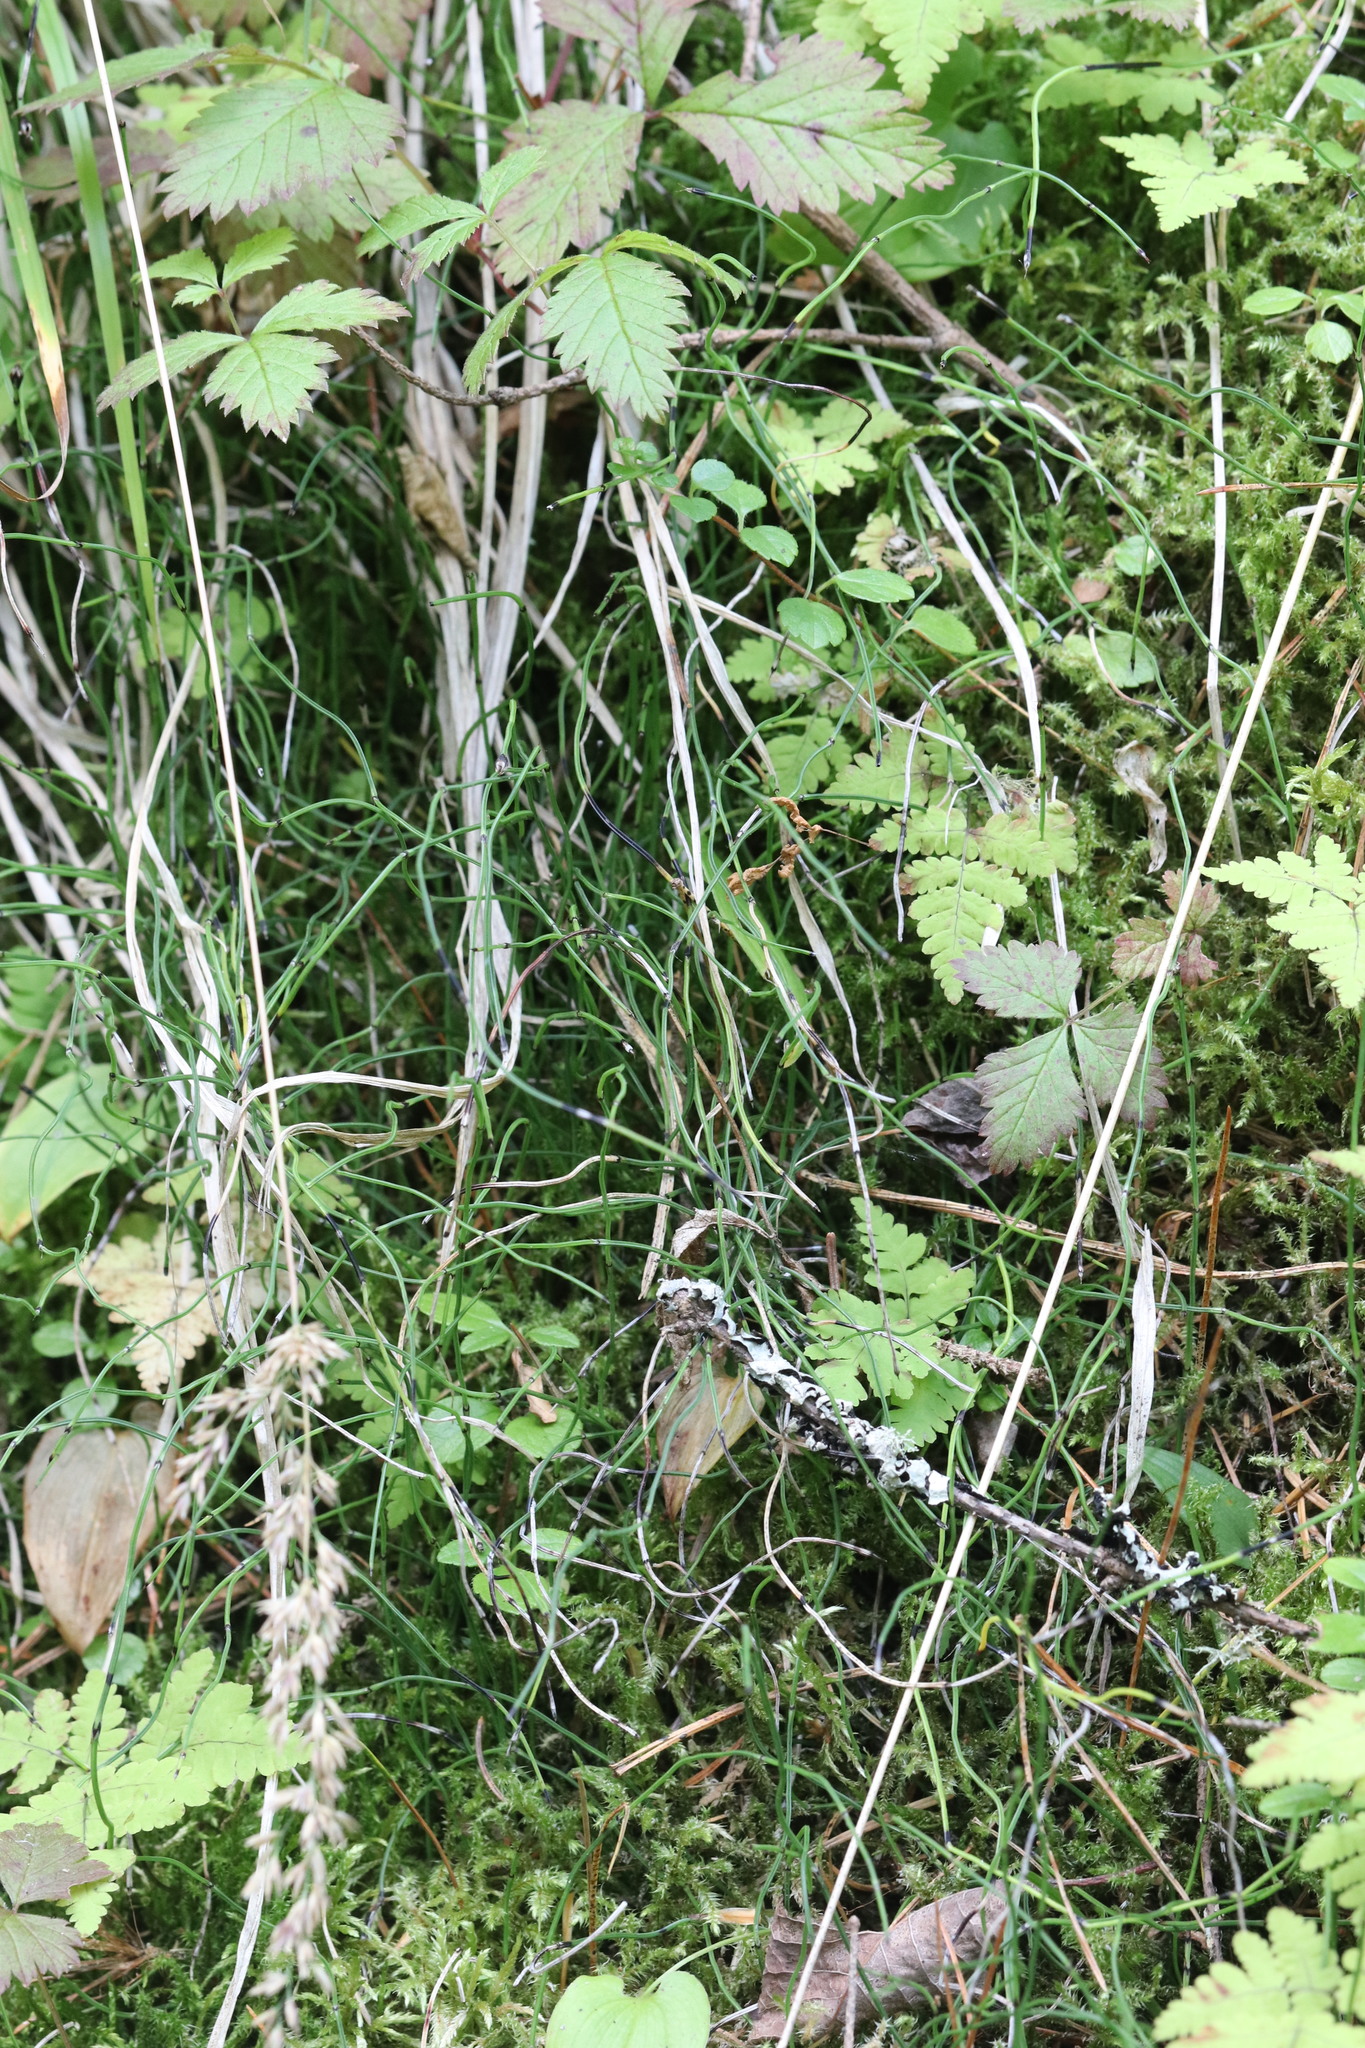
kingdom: Plantae
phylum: Tracheophyta
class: Polypodiopsida
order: Equisetales
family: Equisetaceae
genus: Equisetum
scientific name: Equisetum scirpoides
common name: Delicate horsetail
